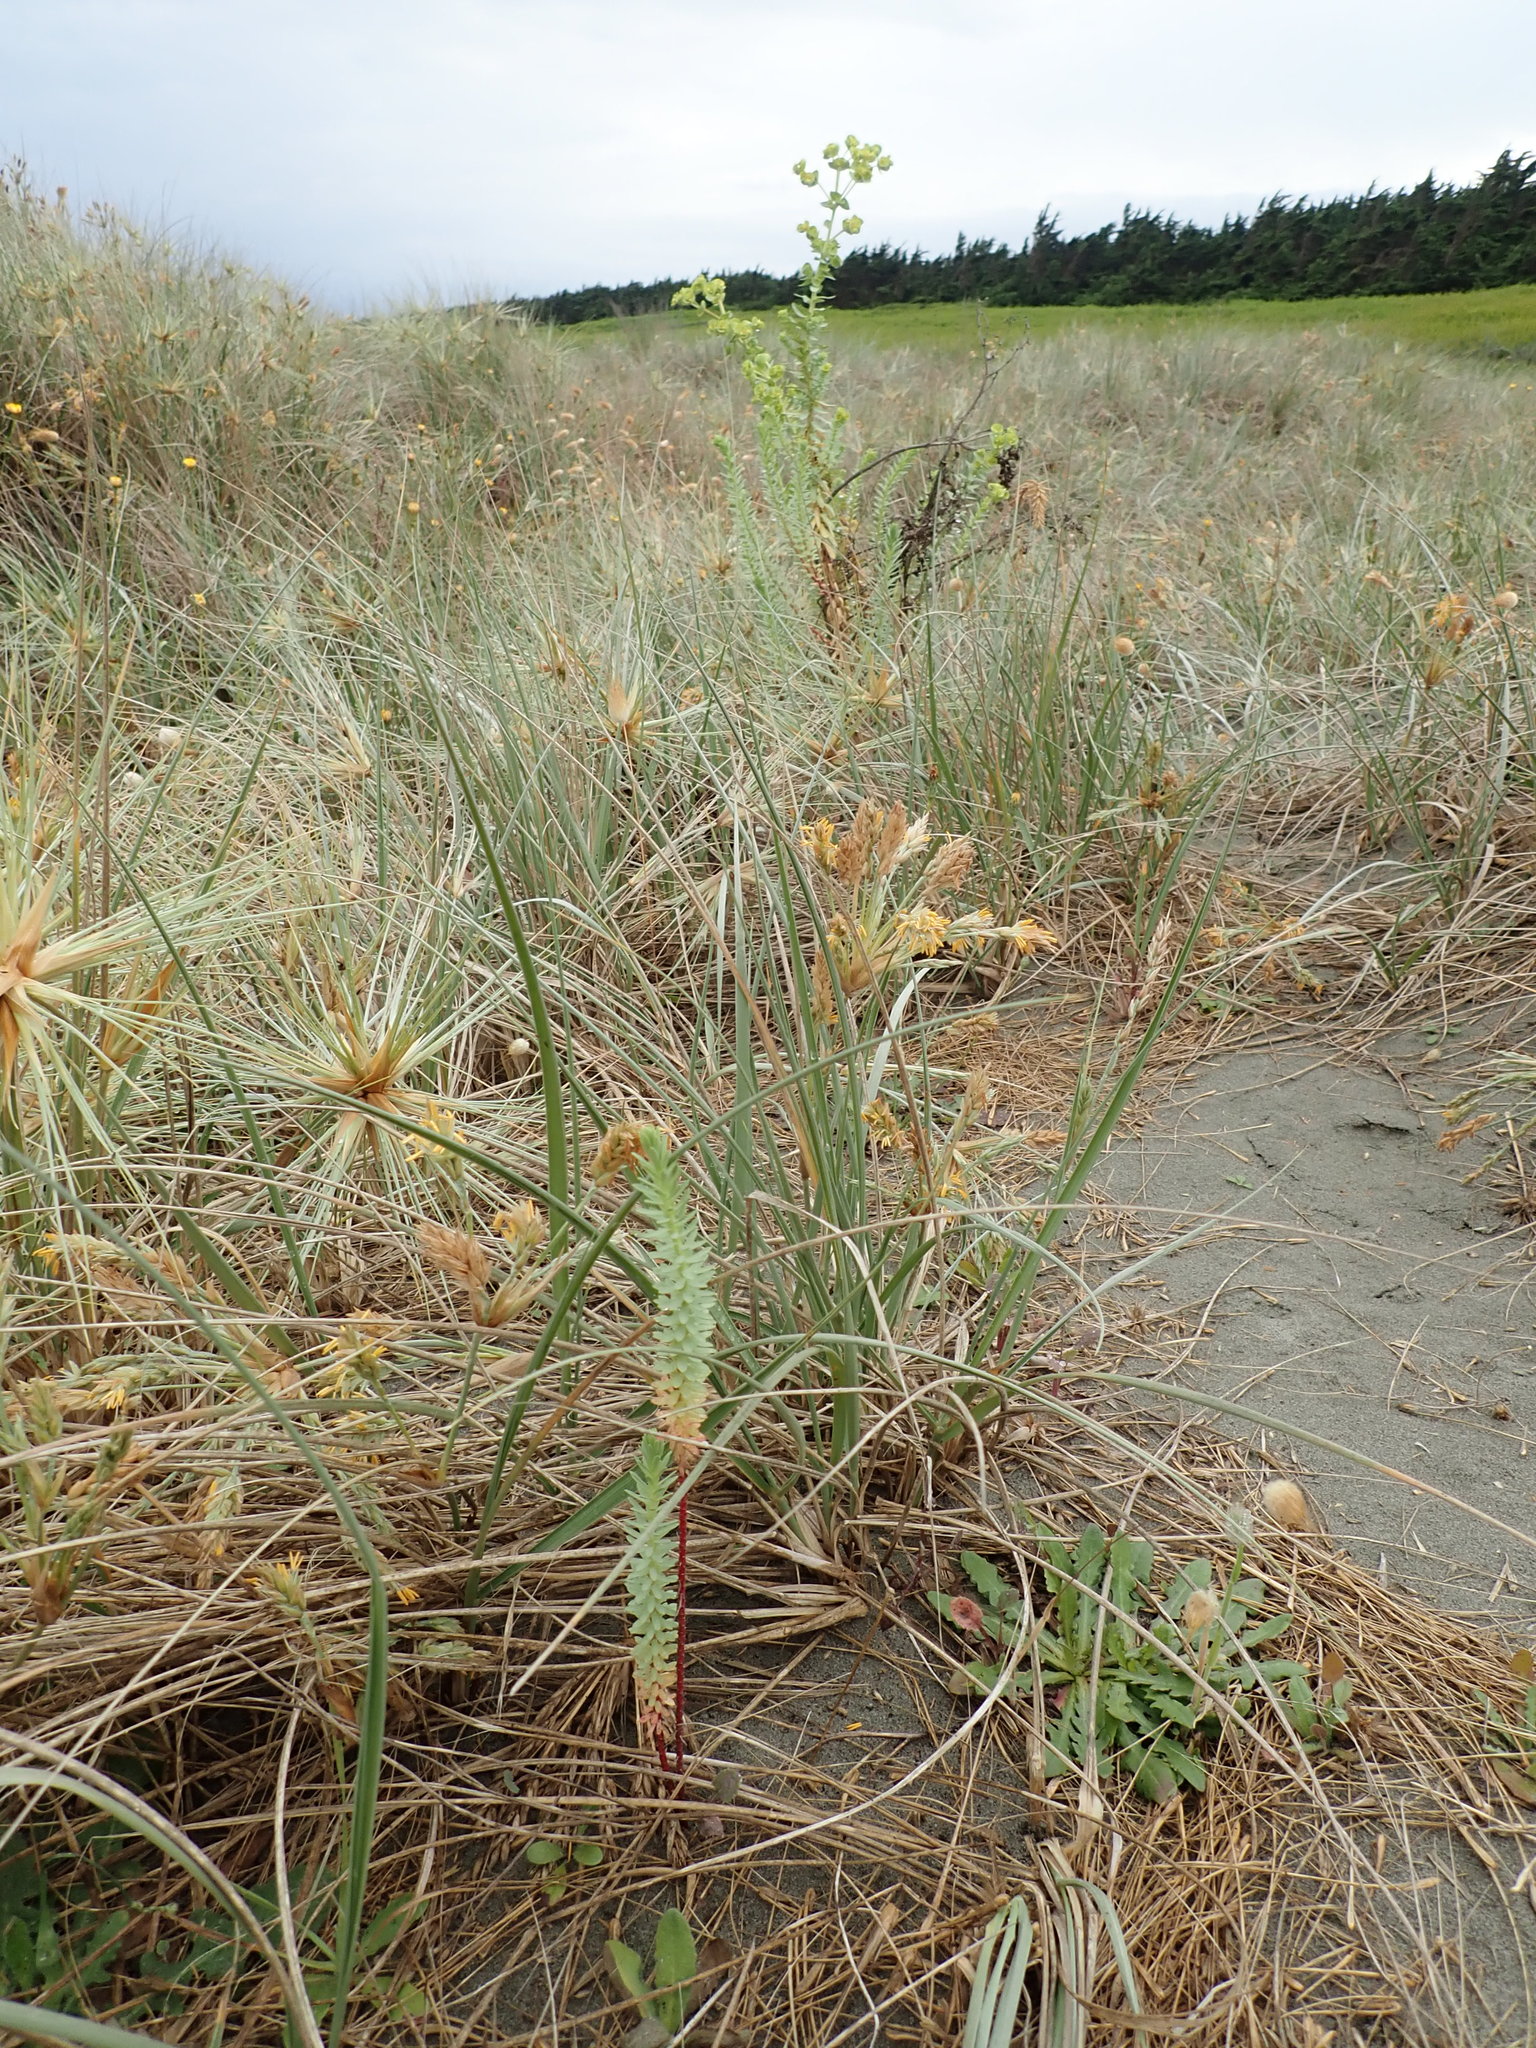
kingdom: Plantae
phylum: Tracheophyta
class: Magnoliopsida
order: Malpighiales
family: Euphorbiaceae
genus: Euphorbia
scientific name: Euphorbia paralias
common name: Sea spurge
